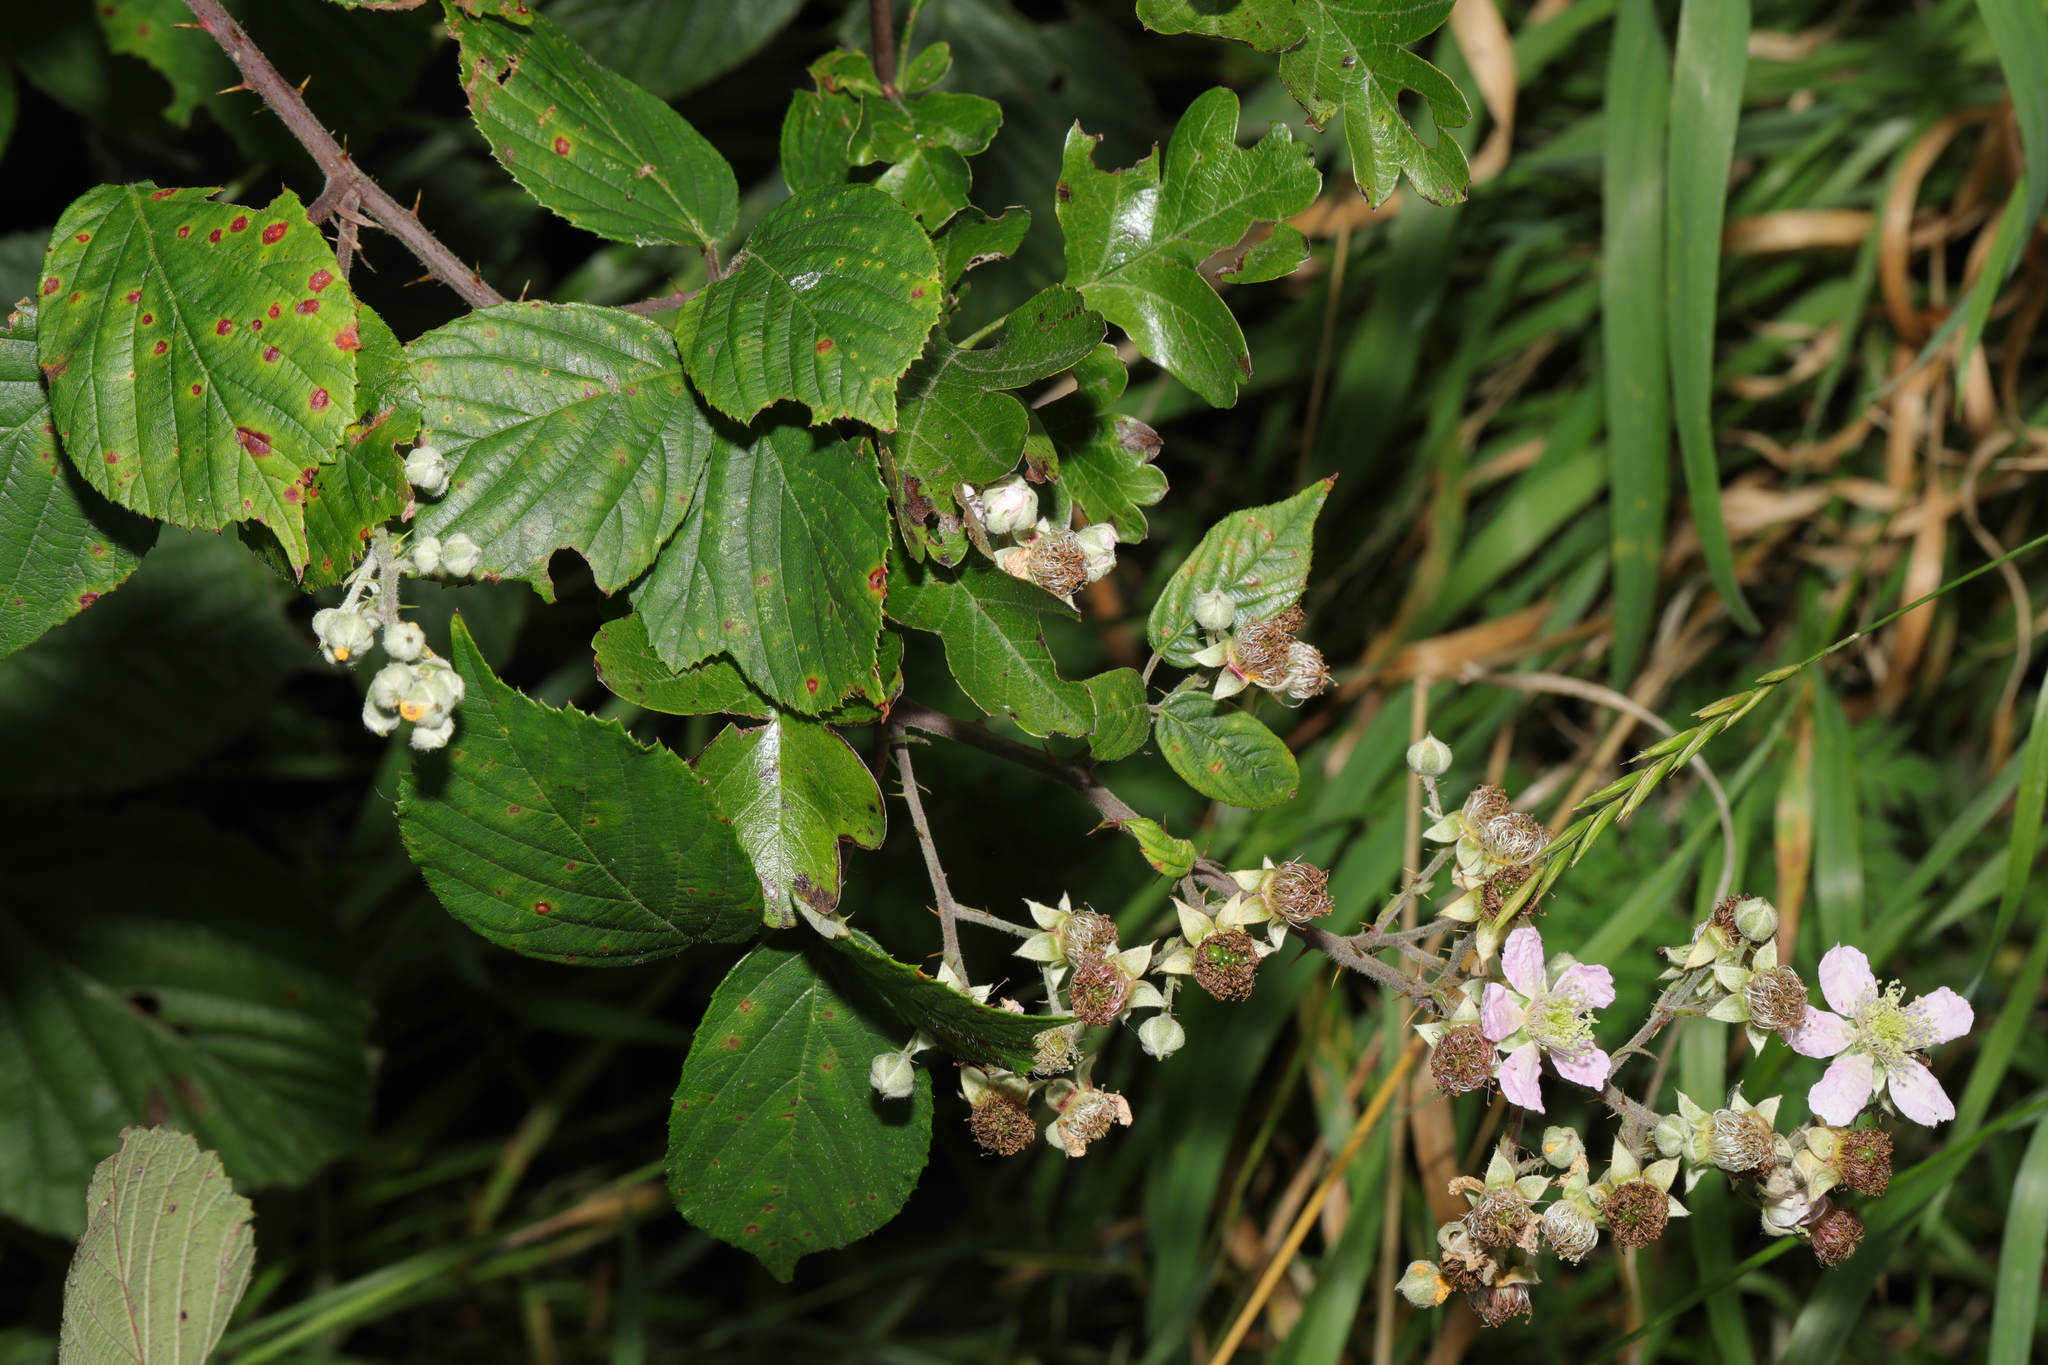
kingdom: Plantae
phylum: Tracheophyta
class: Magnoliopsida
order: Rosales
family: Rosaceae
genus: Rubus
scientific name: Rubus wirralensis
